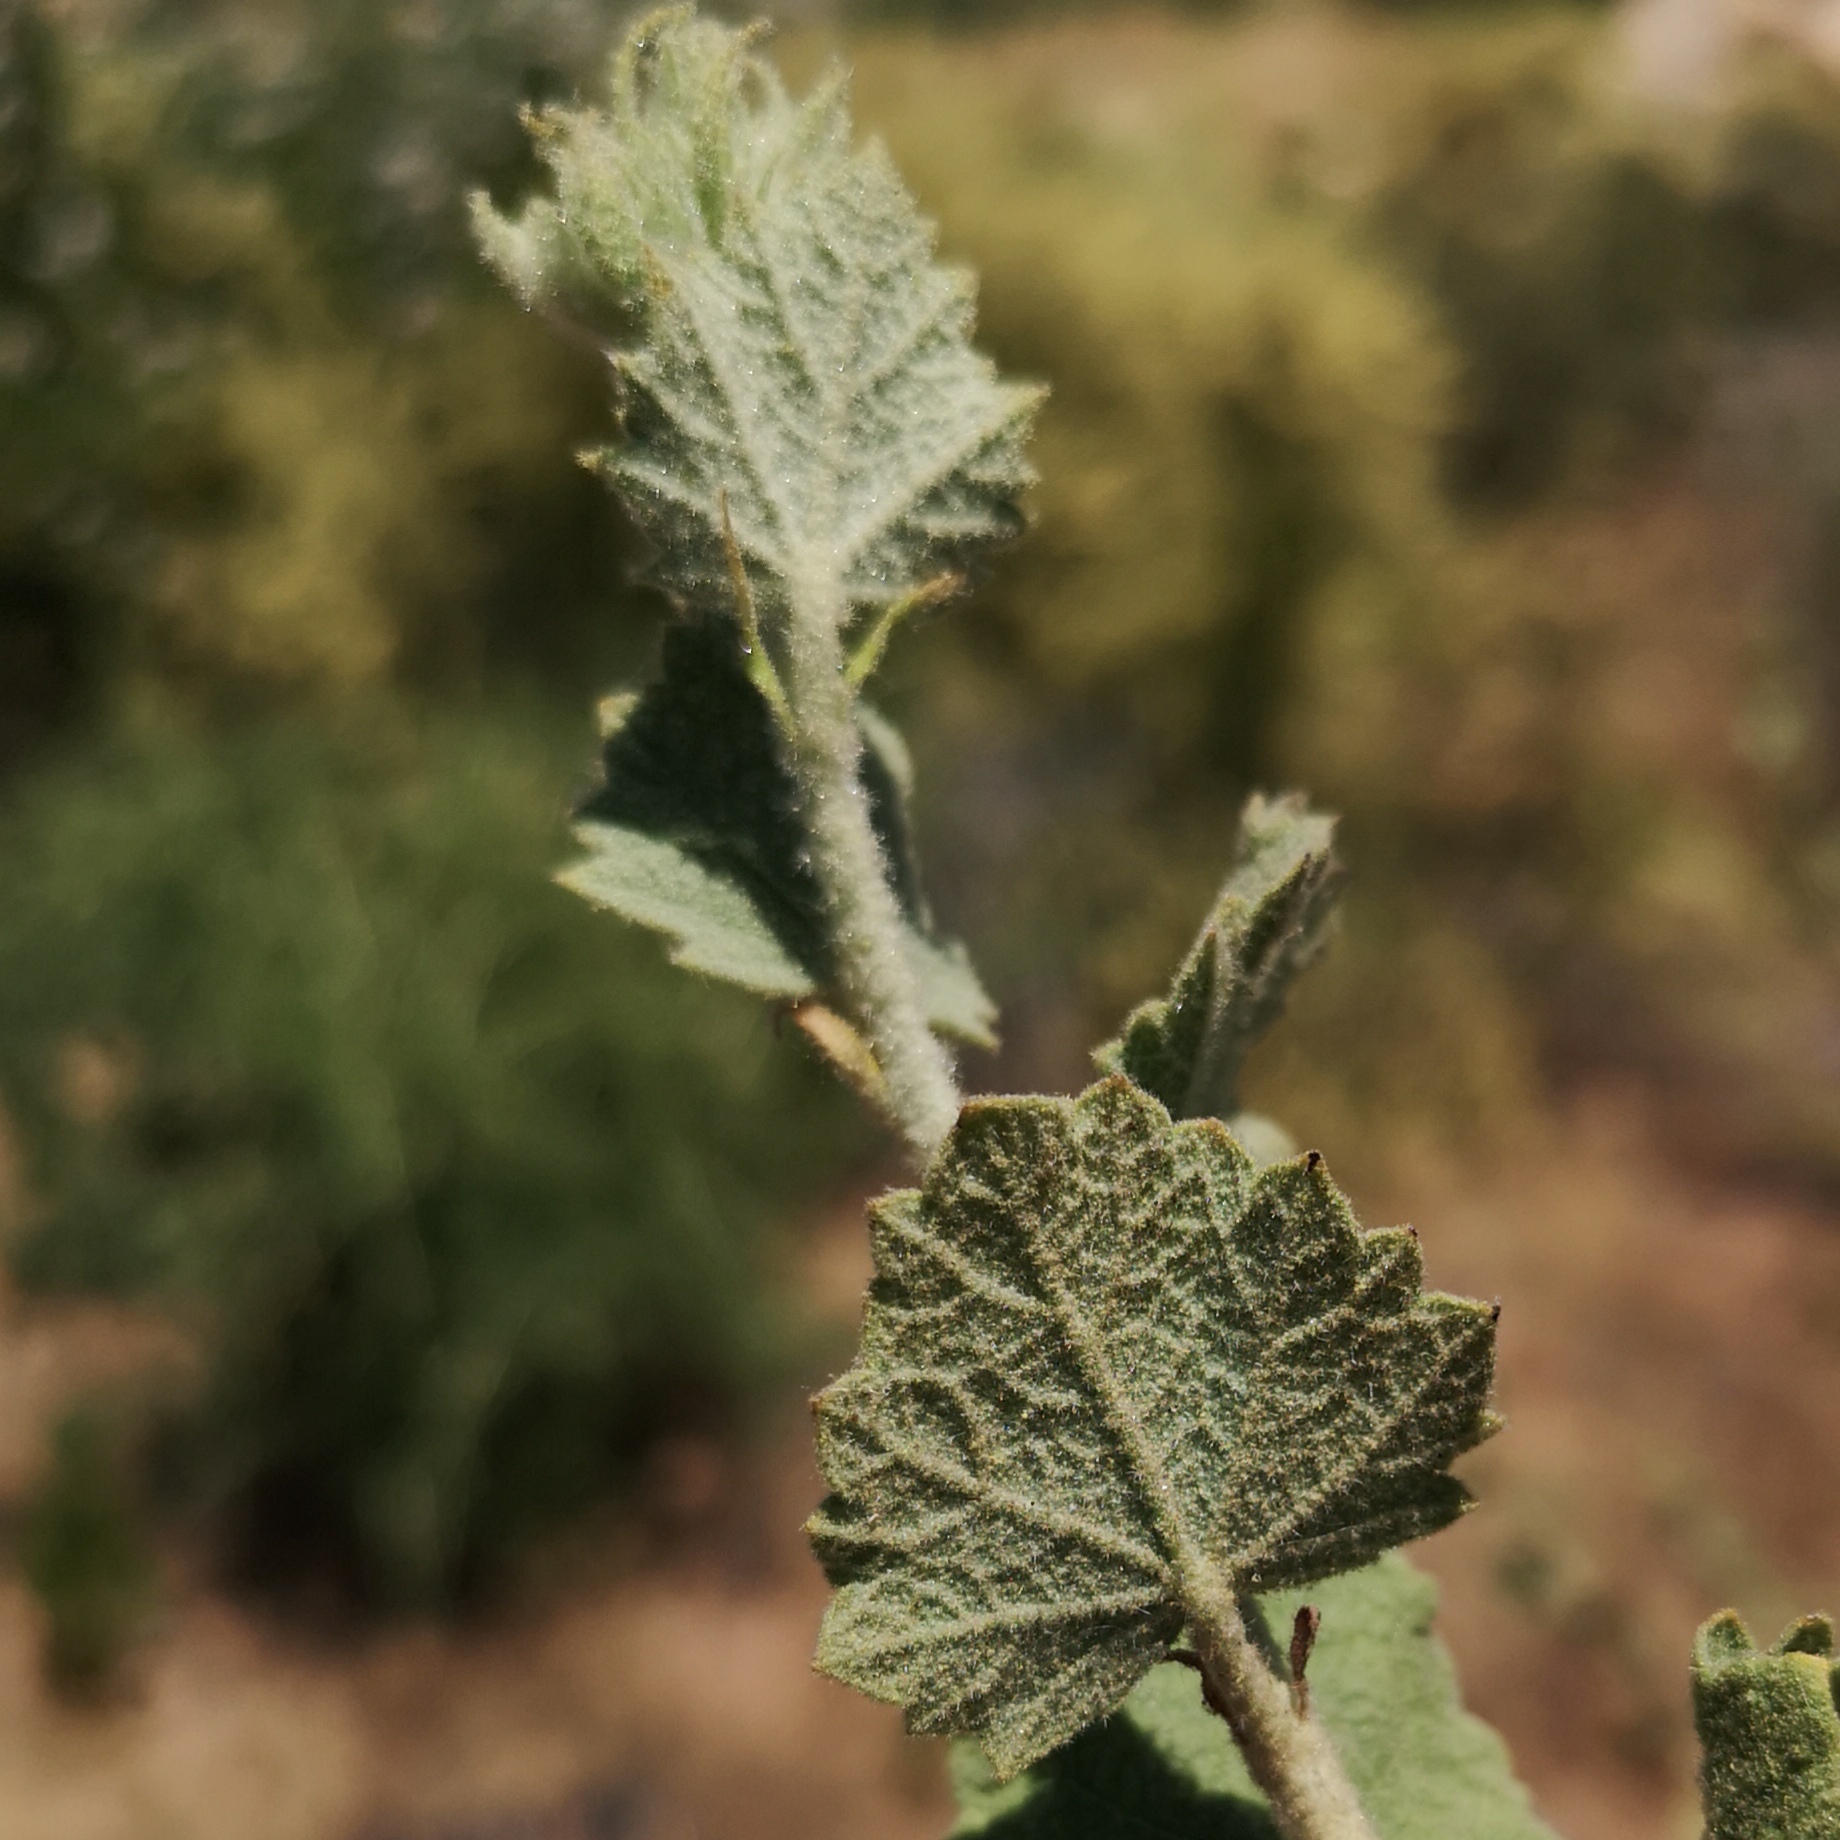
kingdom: Plantae
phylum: Tracheophyta
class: Magnoliopsida
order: Malvales
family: Malvaceae
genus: Malacothamnus
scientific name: Malacothamnus marrubioides
